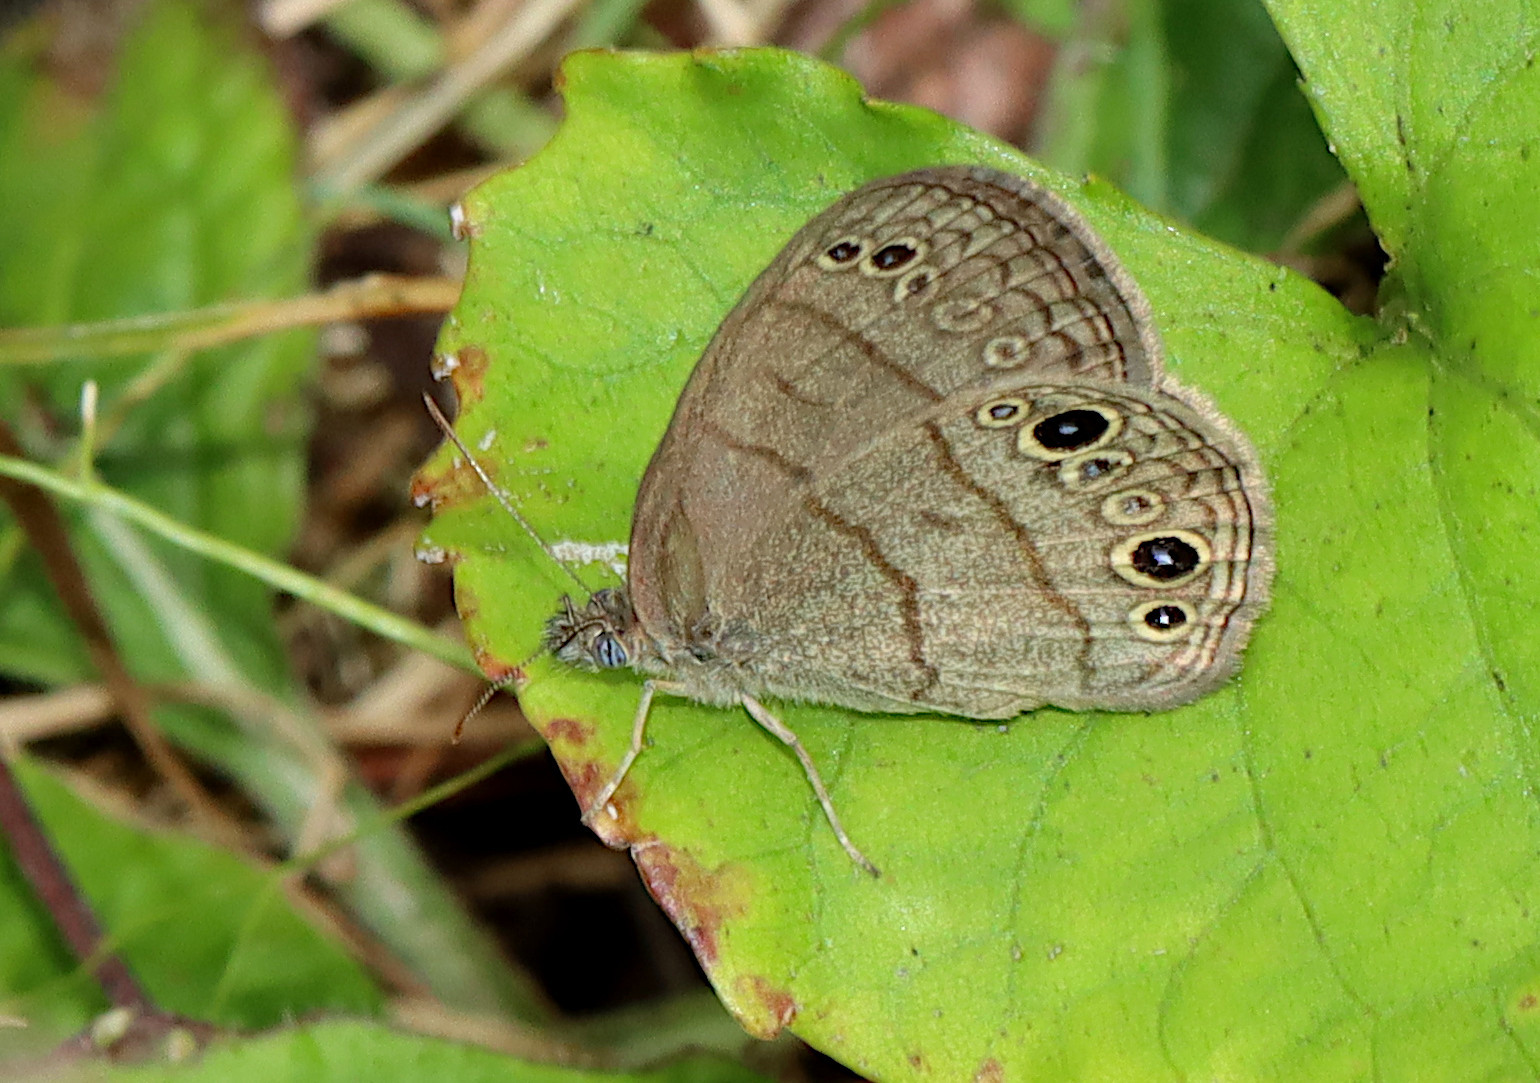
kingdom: Animalia
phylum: Arthropoda
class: Insecta
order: Lepidoptera
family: Nymphalidae
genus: Hermeuptychia
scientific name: Hermeuptychia hermes
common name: Hermes satyr
